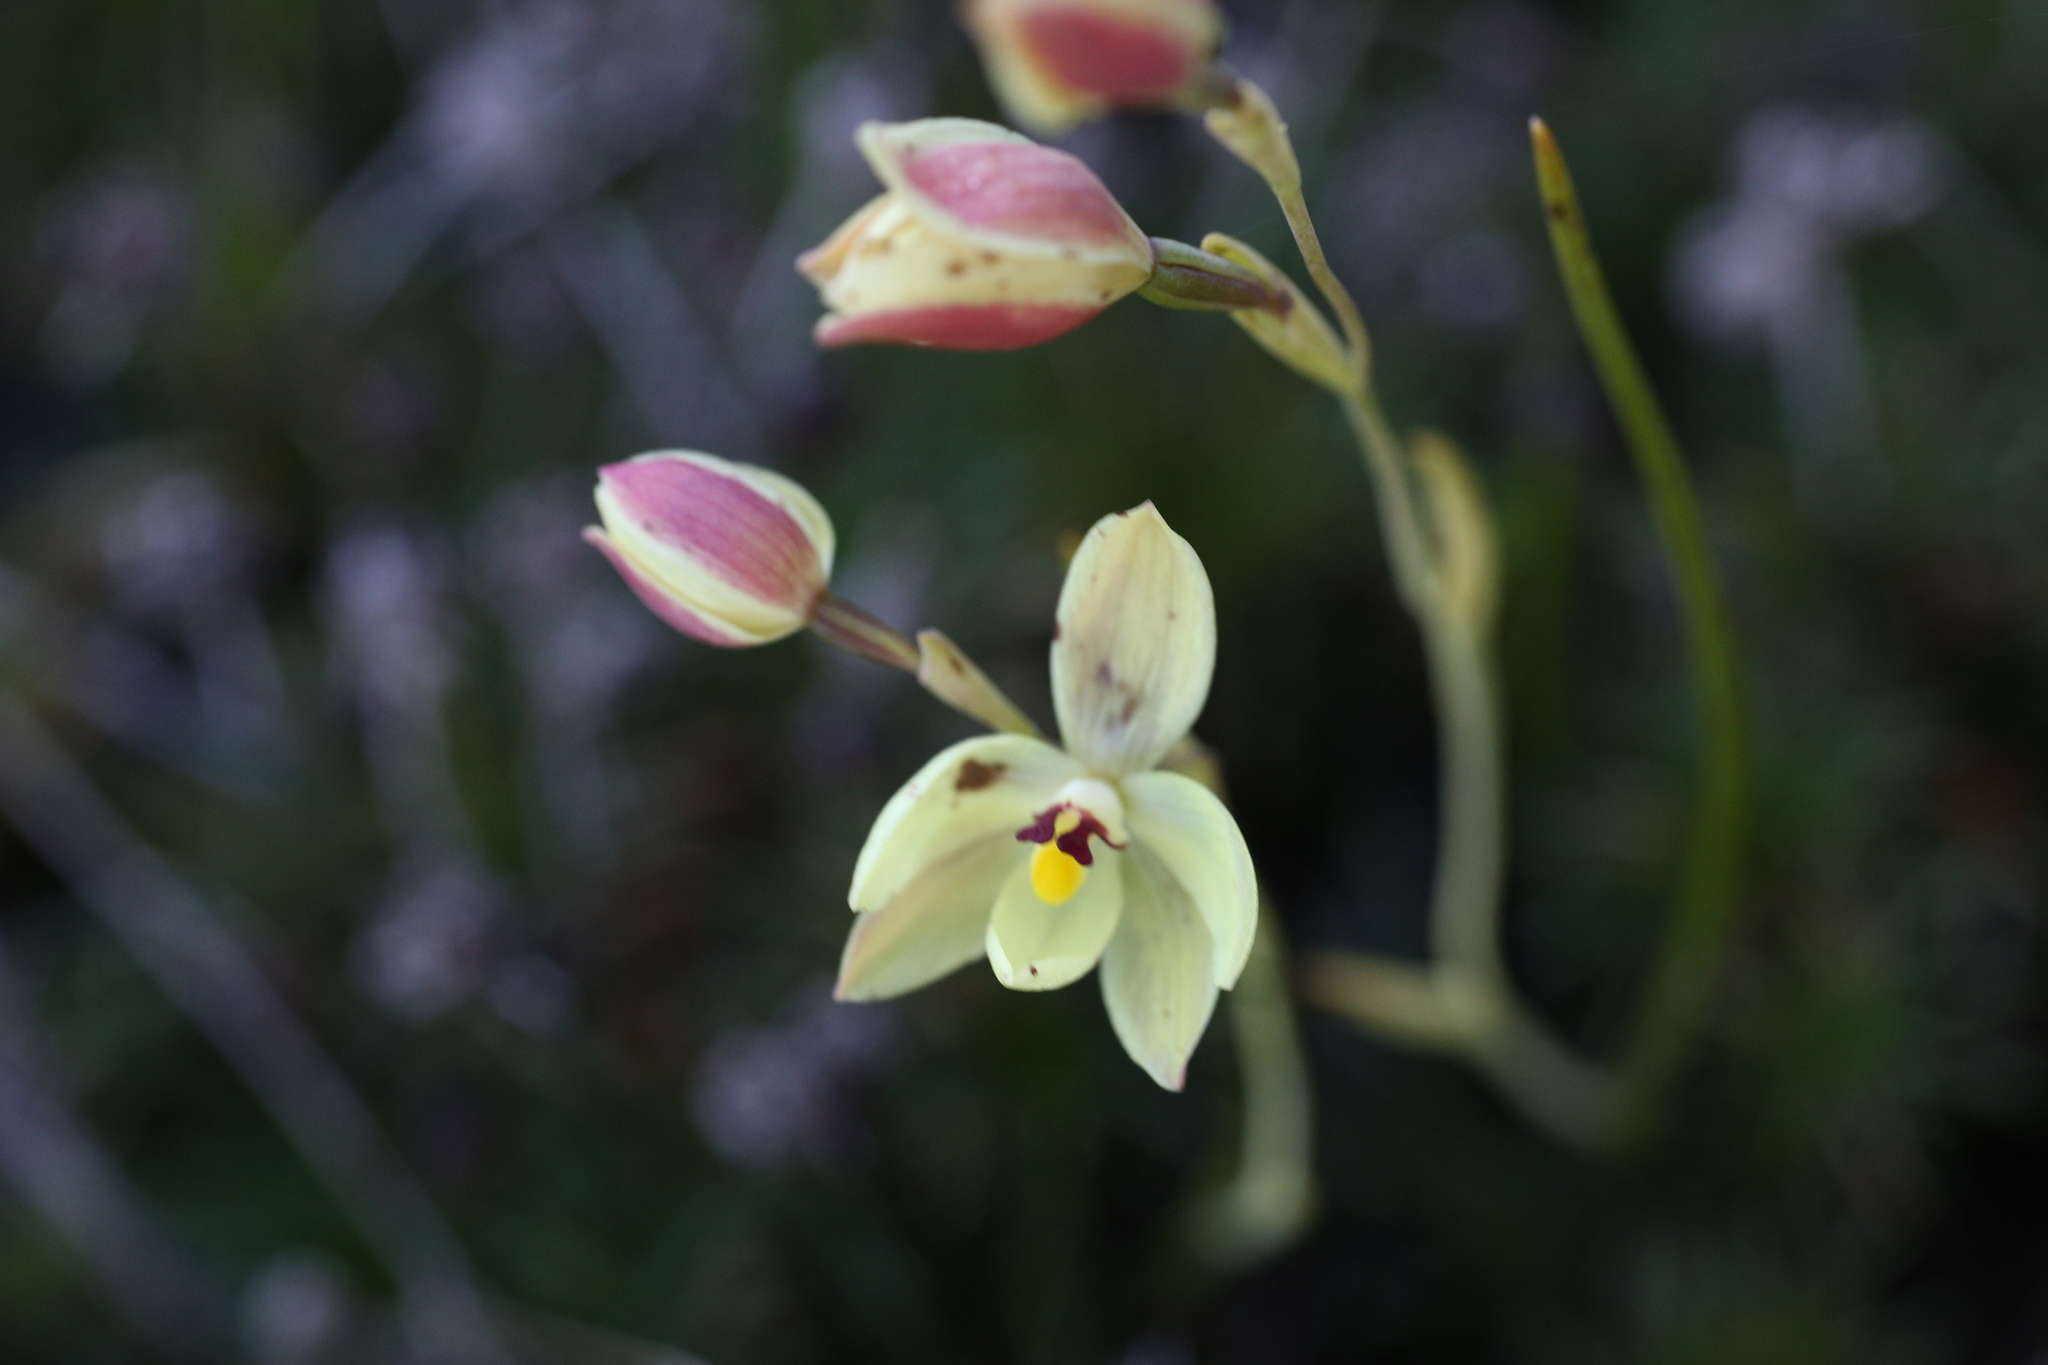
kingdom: Plantae
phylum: Tracheophyta
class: Liliopsida
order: Asparagales
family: Orchidaceae
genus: Thelymitra
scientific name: Thelymitra antennifera
